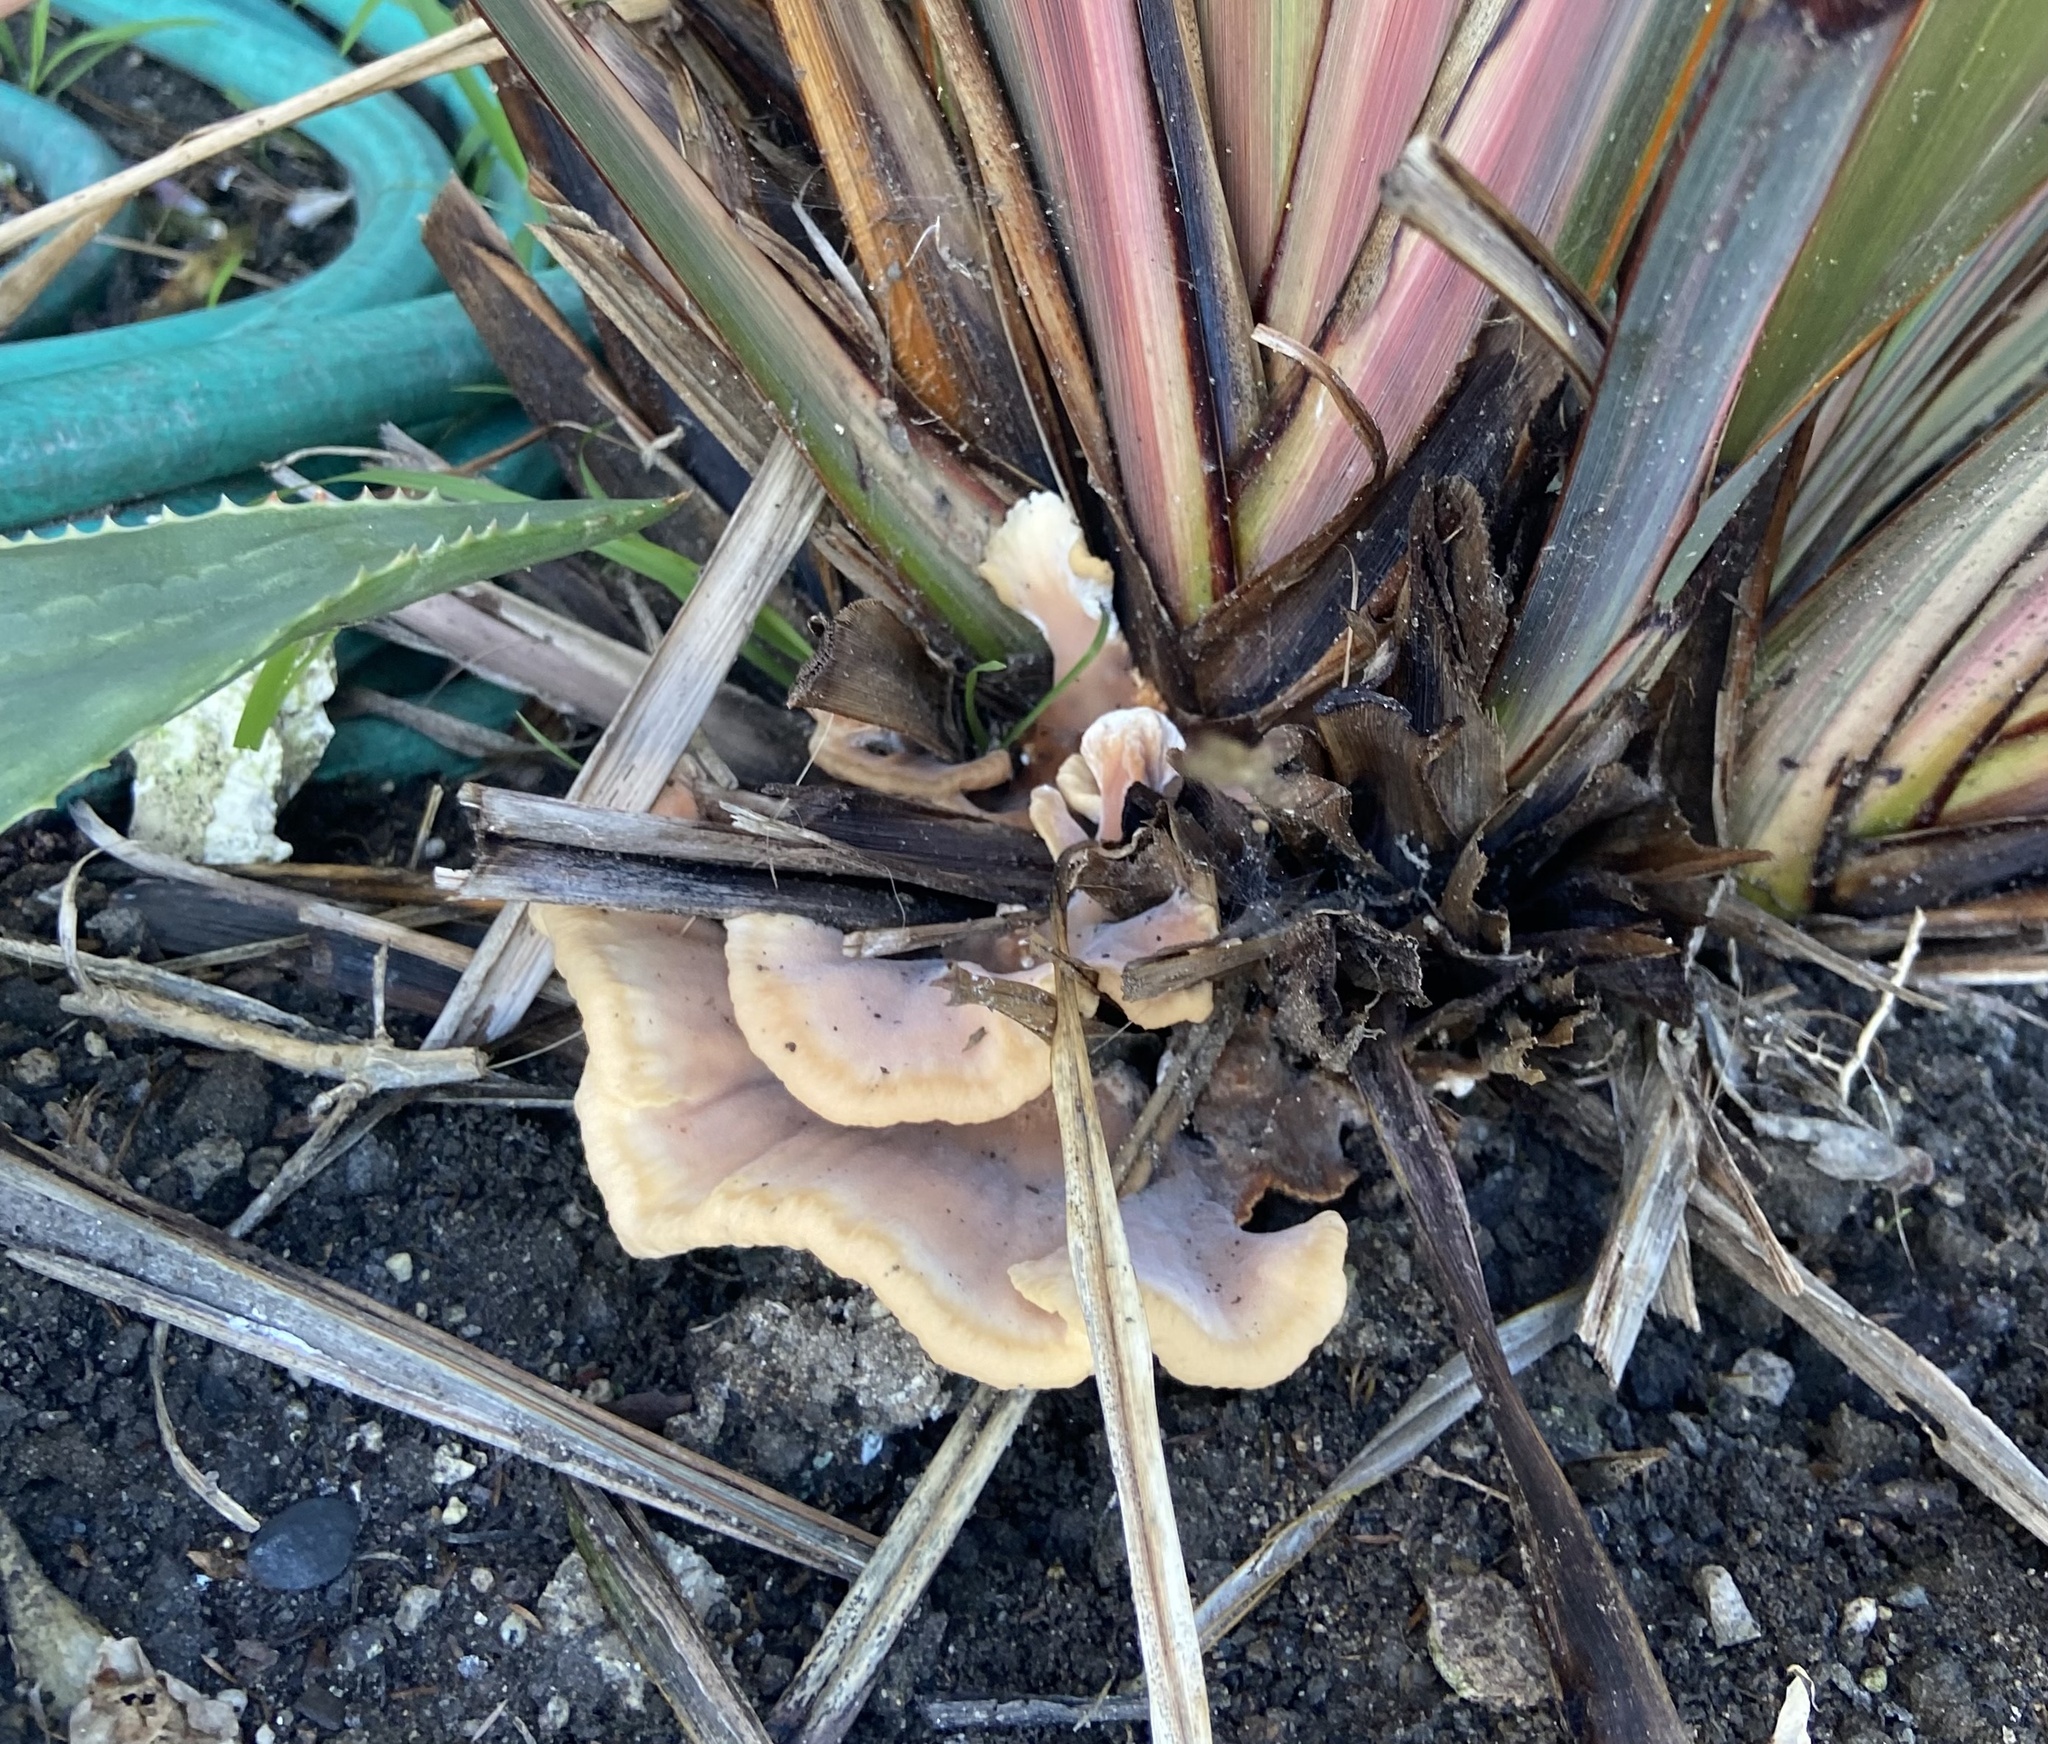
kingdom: Fungi
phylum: Basidiomycota
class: Agaricomycetes
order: Polyporales
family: Podoscyphaceae
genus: Abortiporus
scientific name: Abortiporus biennis
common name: Blushing rosette
